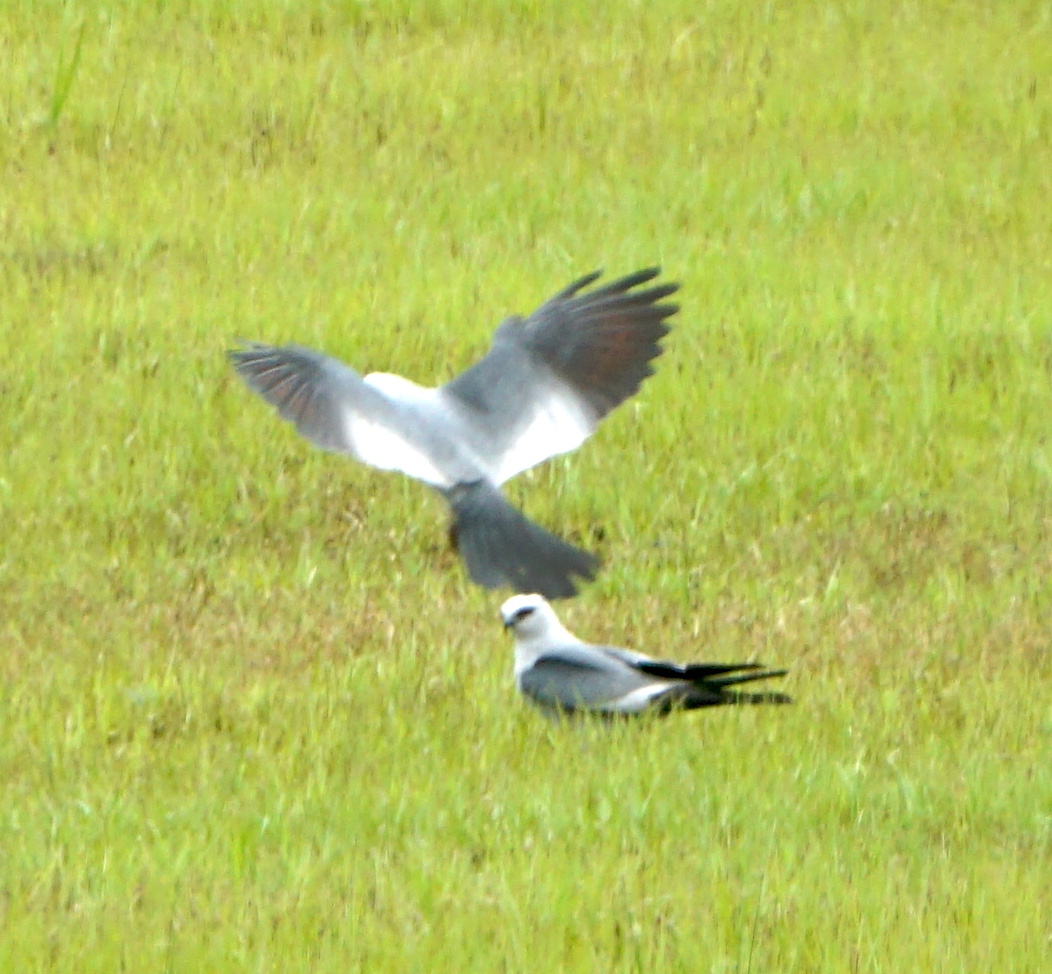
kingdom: Animalia
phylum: Chordata
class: Aves
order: Accipitriformes
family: Accipitridae
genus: Ictinia
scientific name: Ictinia mississippiensis
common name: Mississippi kite
